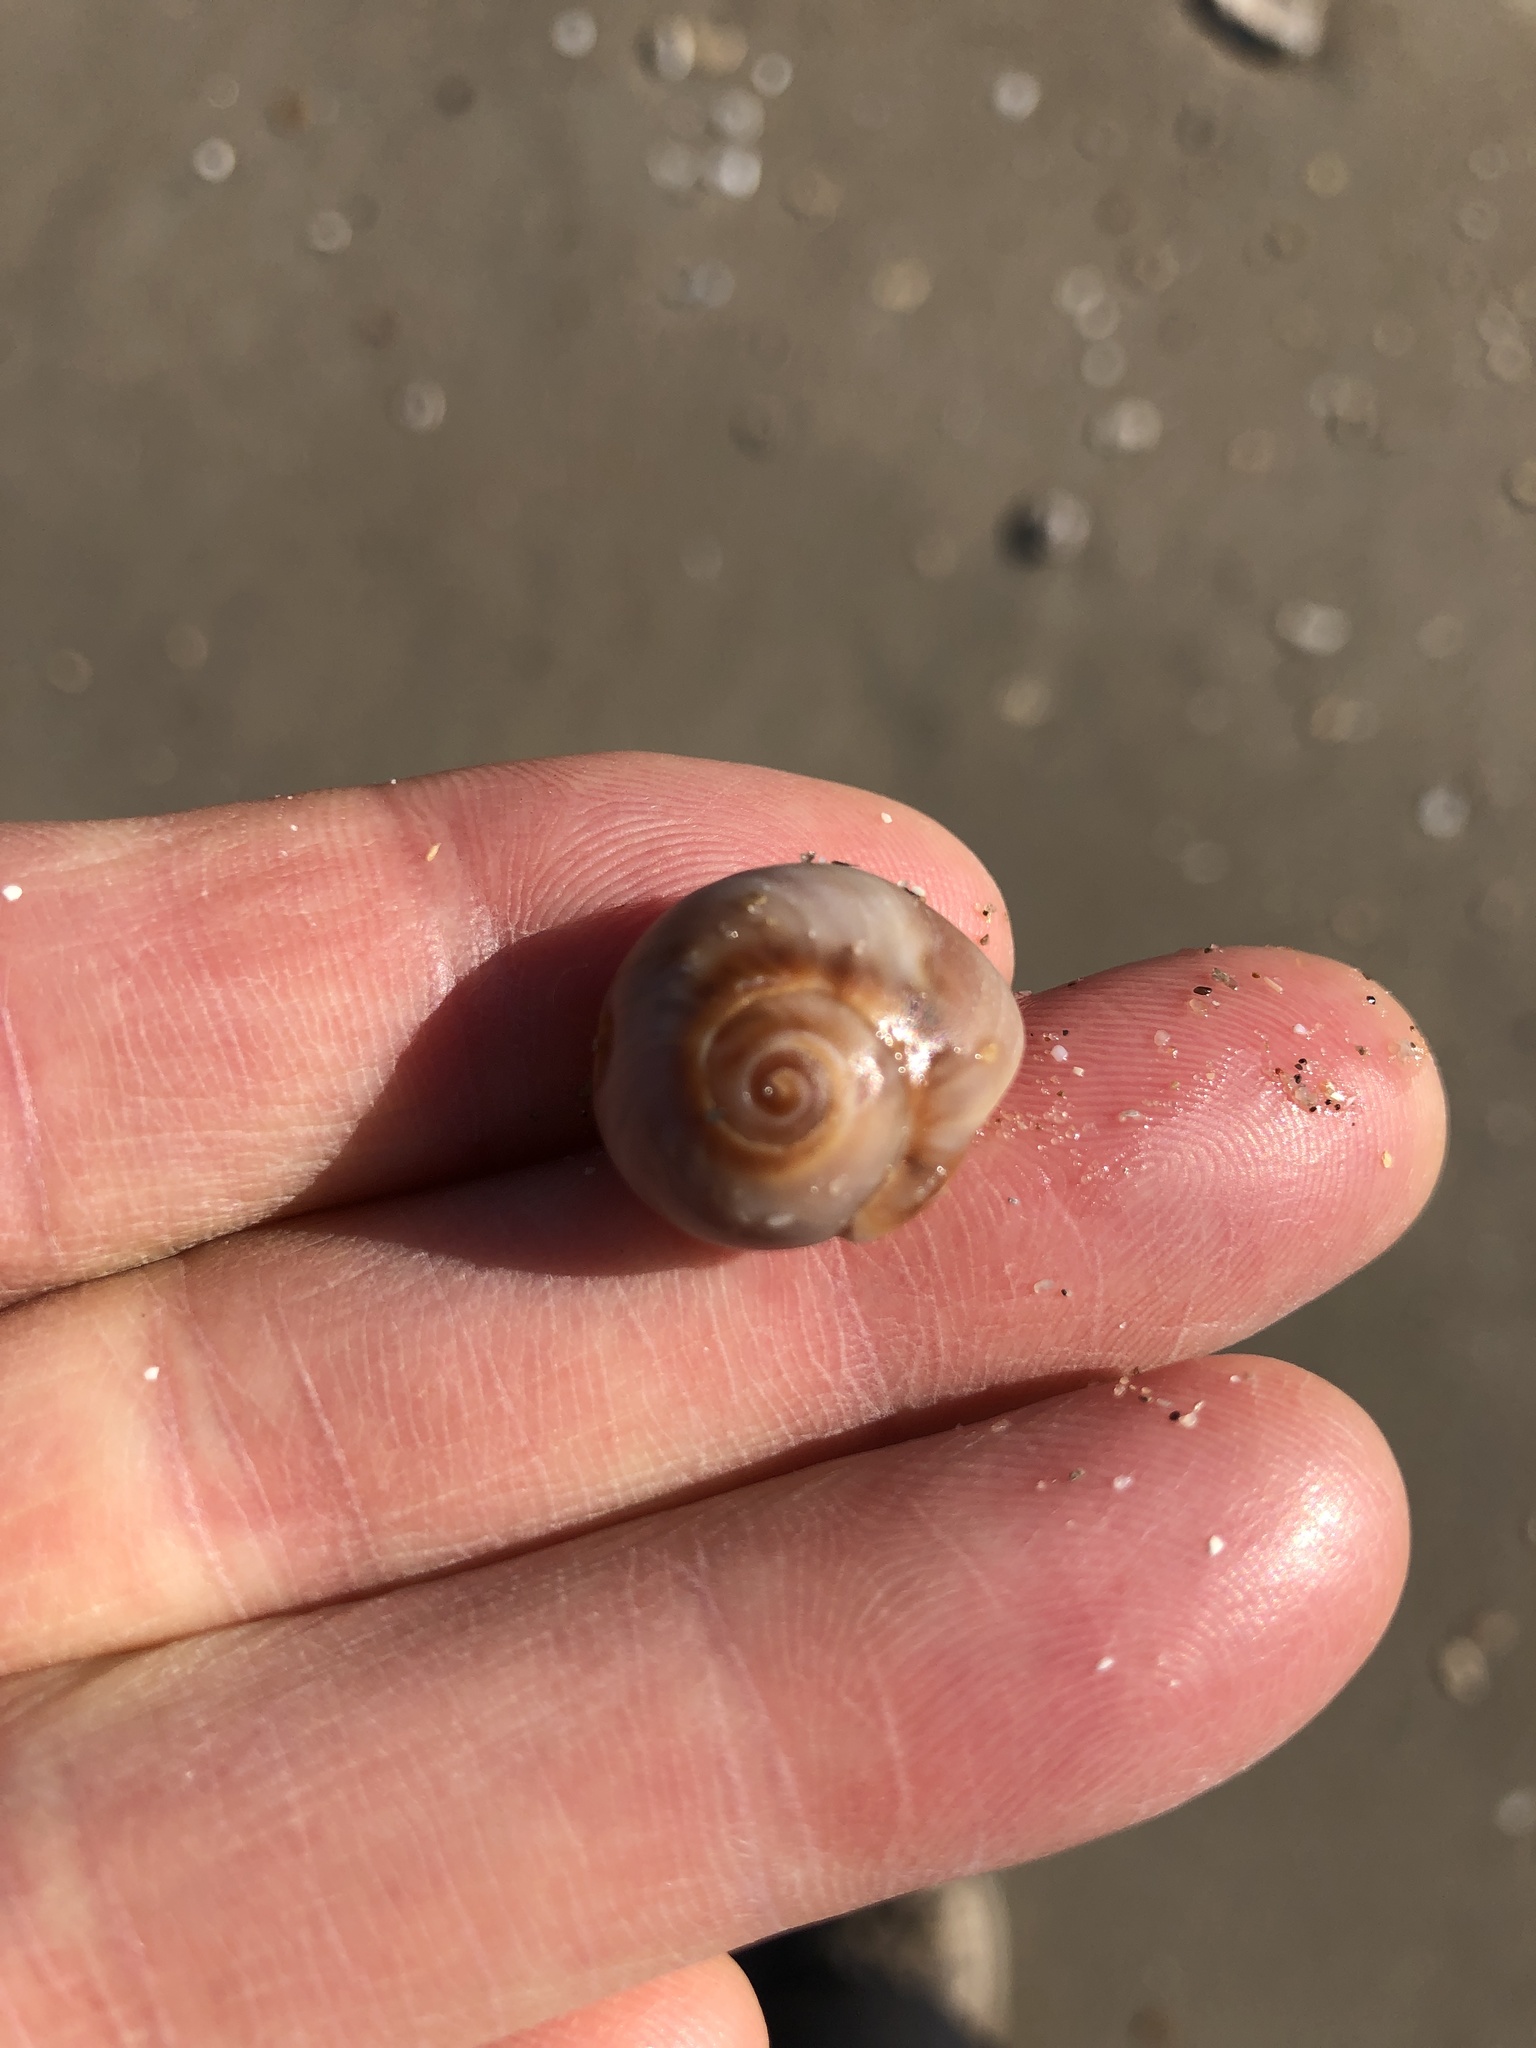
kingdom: Animalia
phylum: Mollusca
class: Gastropoda
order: Littorinimorpha
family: Naticidae
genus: Neverita
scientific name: Neverita delessertiana
